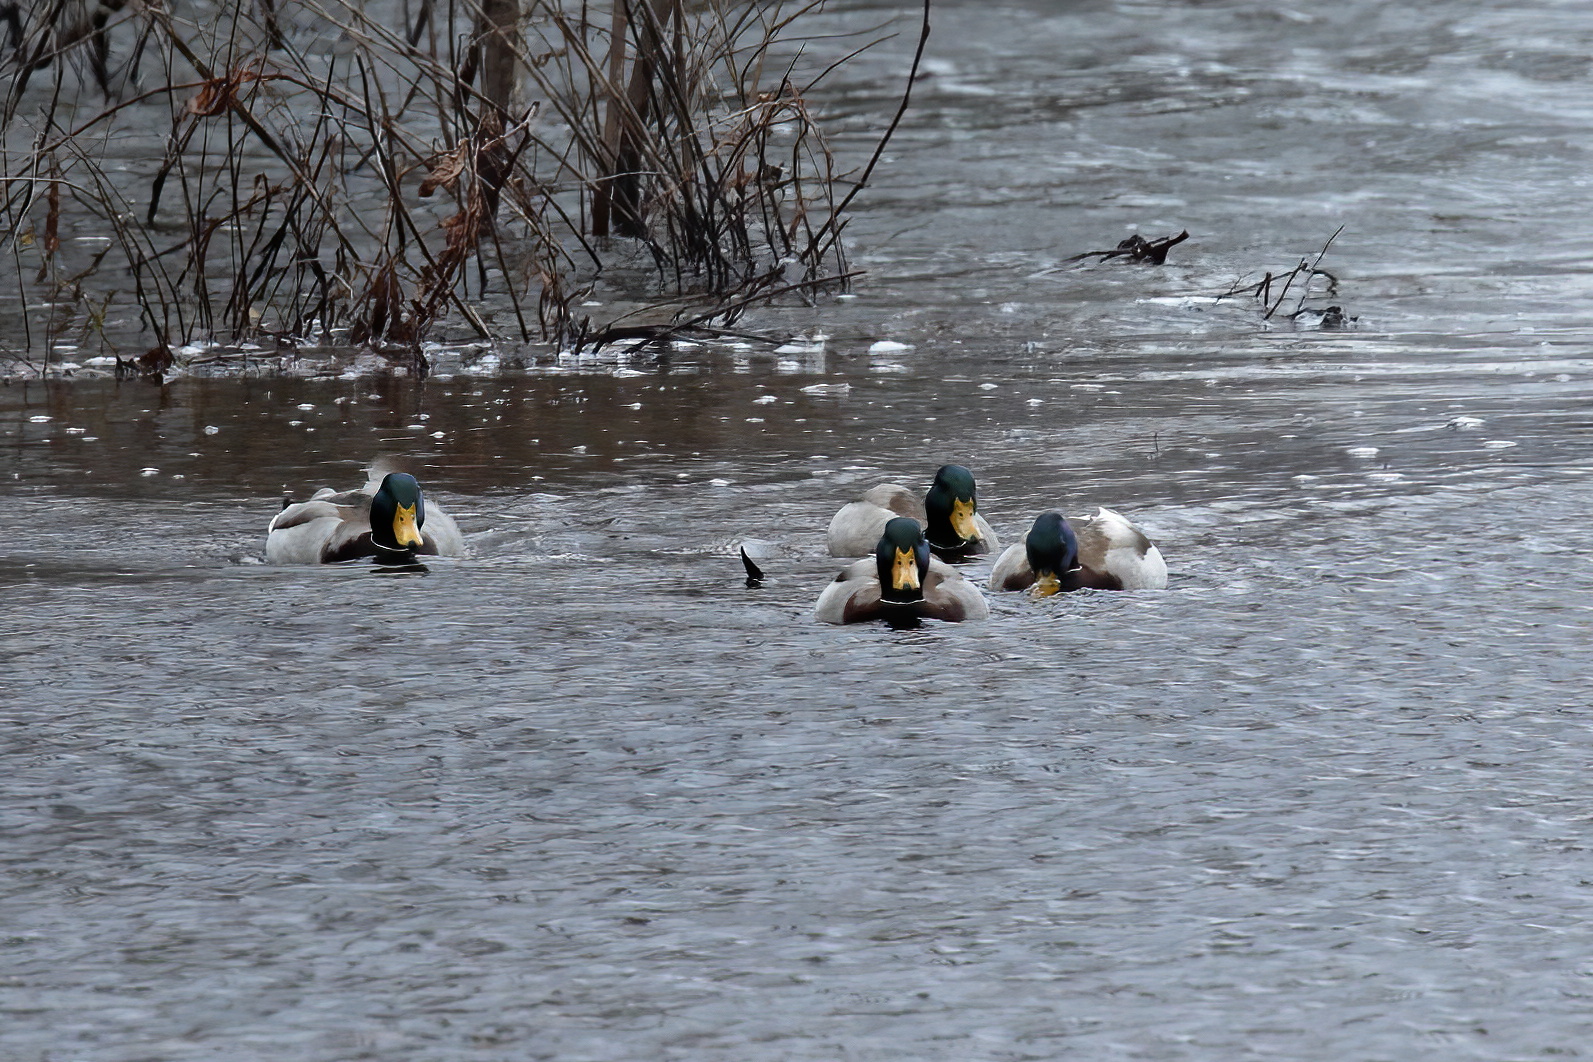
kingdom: Animalia
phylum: Chordata
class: Aves
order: Anseriformes
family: Anatidae
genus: Anas
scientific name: Anas platyrhynchos
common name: Mallard
